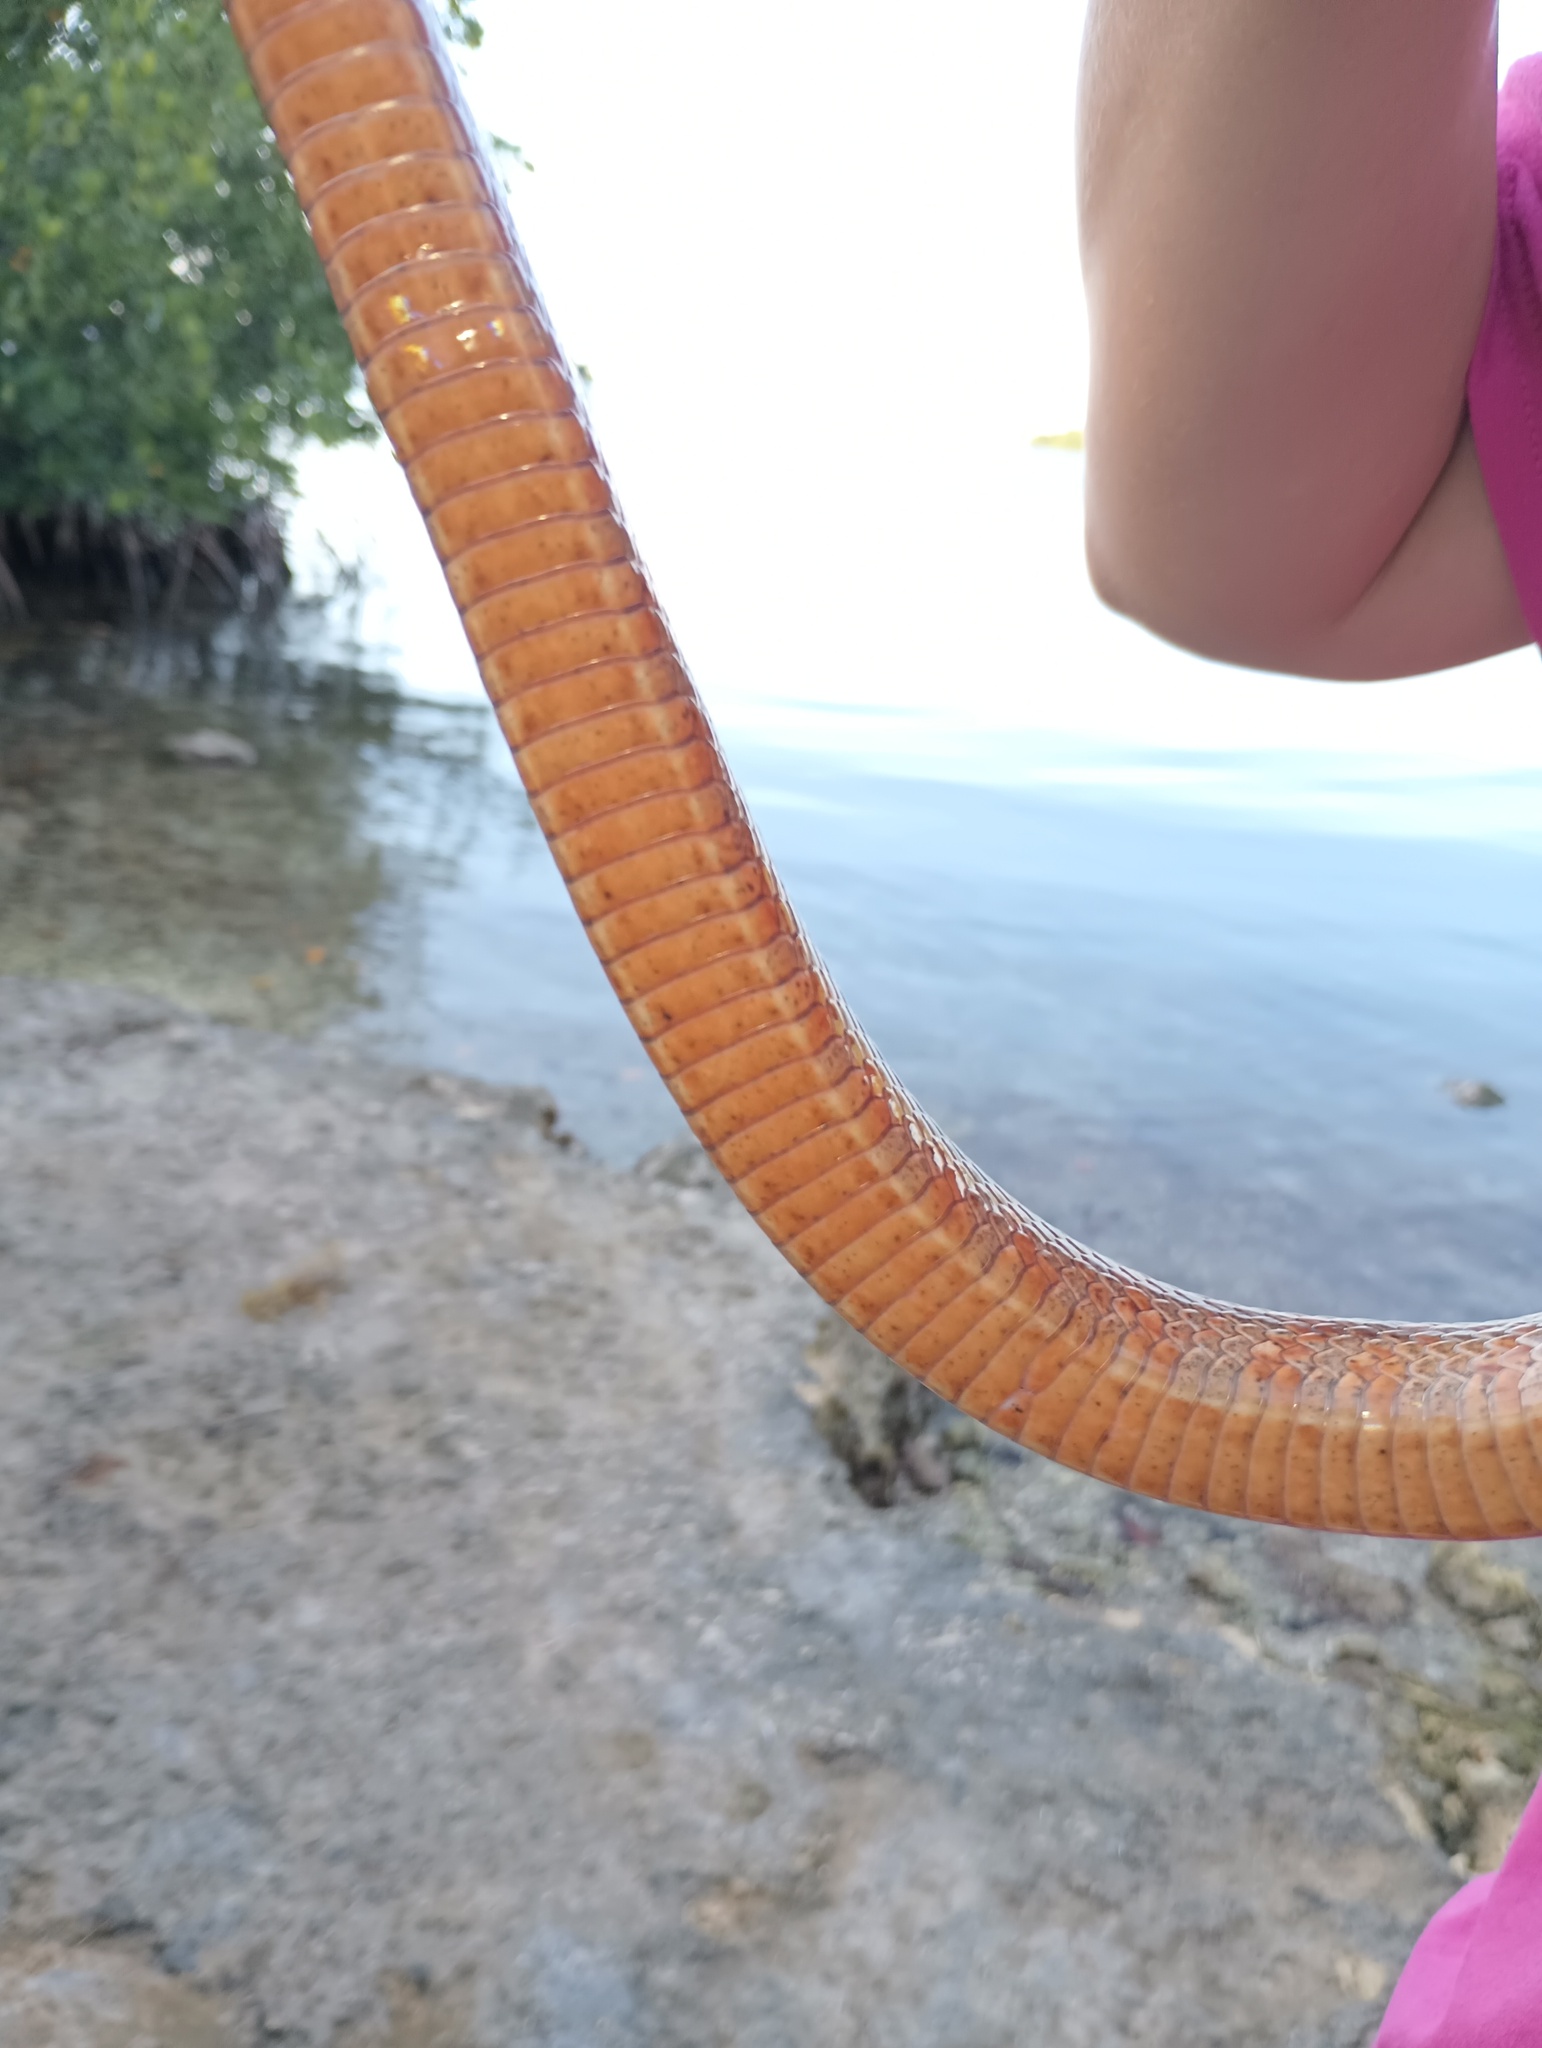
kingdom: Animalia
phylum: Chordata
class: Squamata
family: Colubridae
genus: Pantherophis
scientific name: Pantherophis guttatus
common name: Red cornsnake
